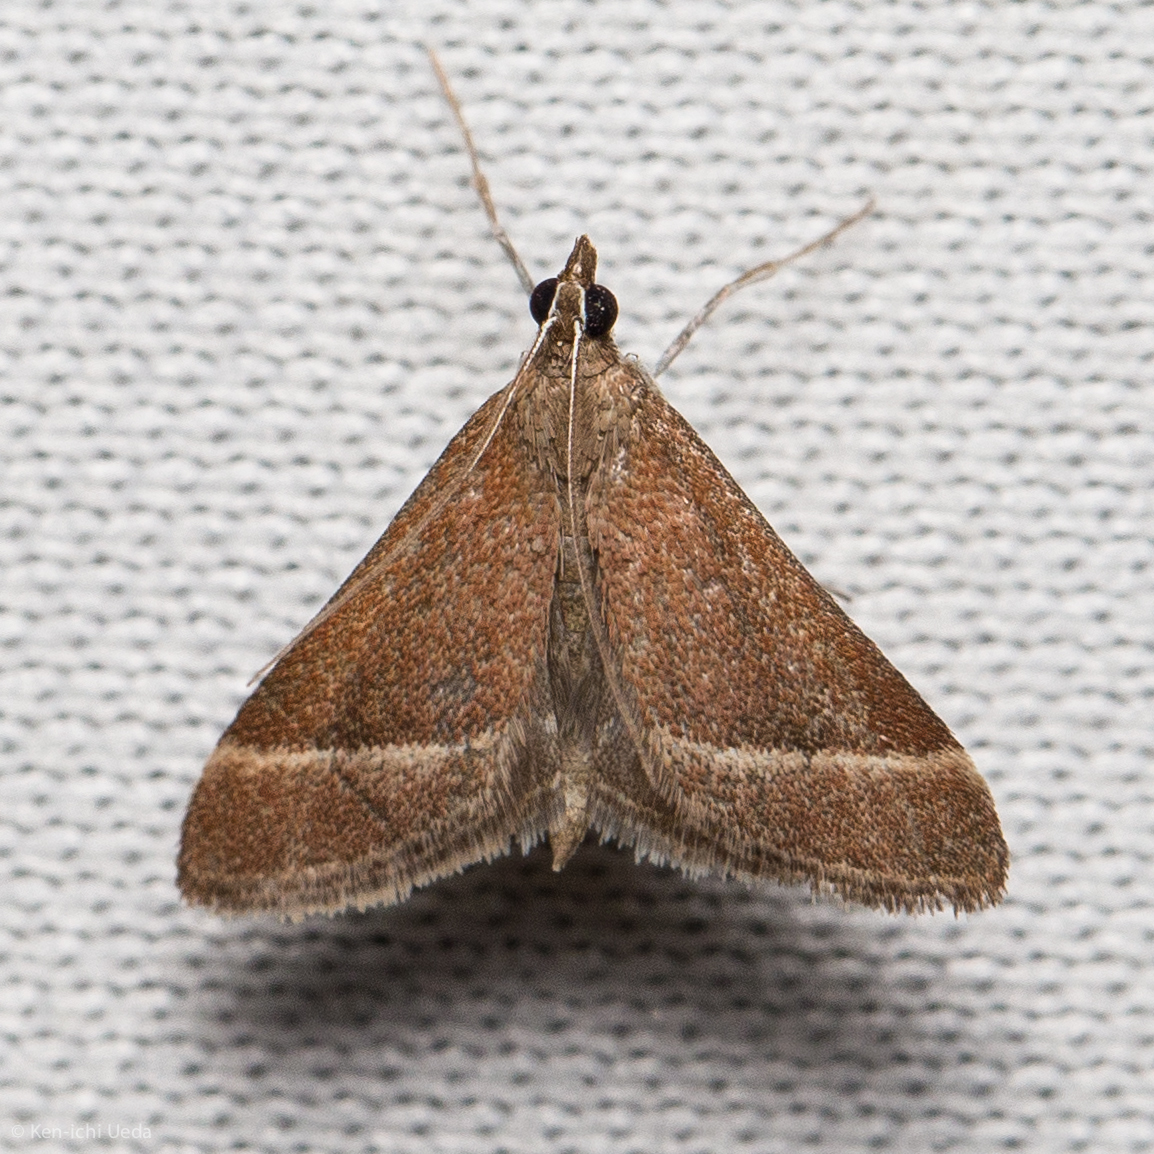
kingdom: Animalia
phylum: Arthropoda
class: Insecta
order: Lepidoptera
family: Crambidae
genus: Pyrausta
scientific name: Pyrausta lethalis
